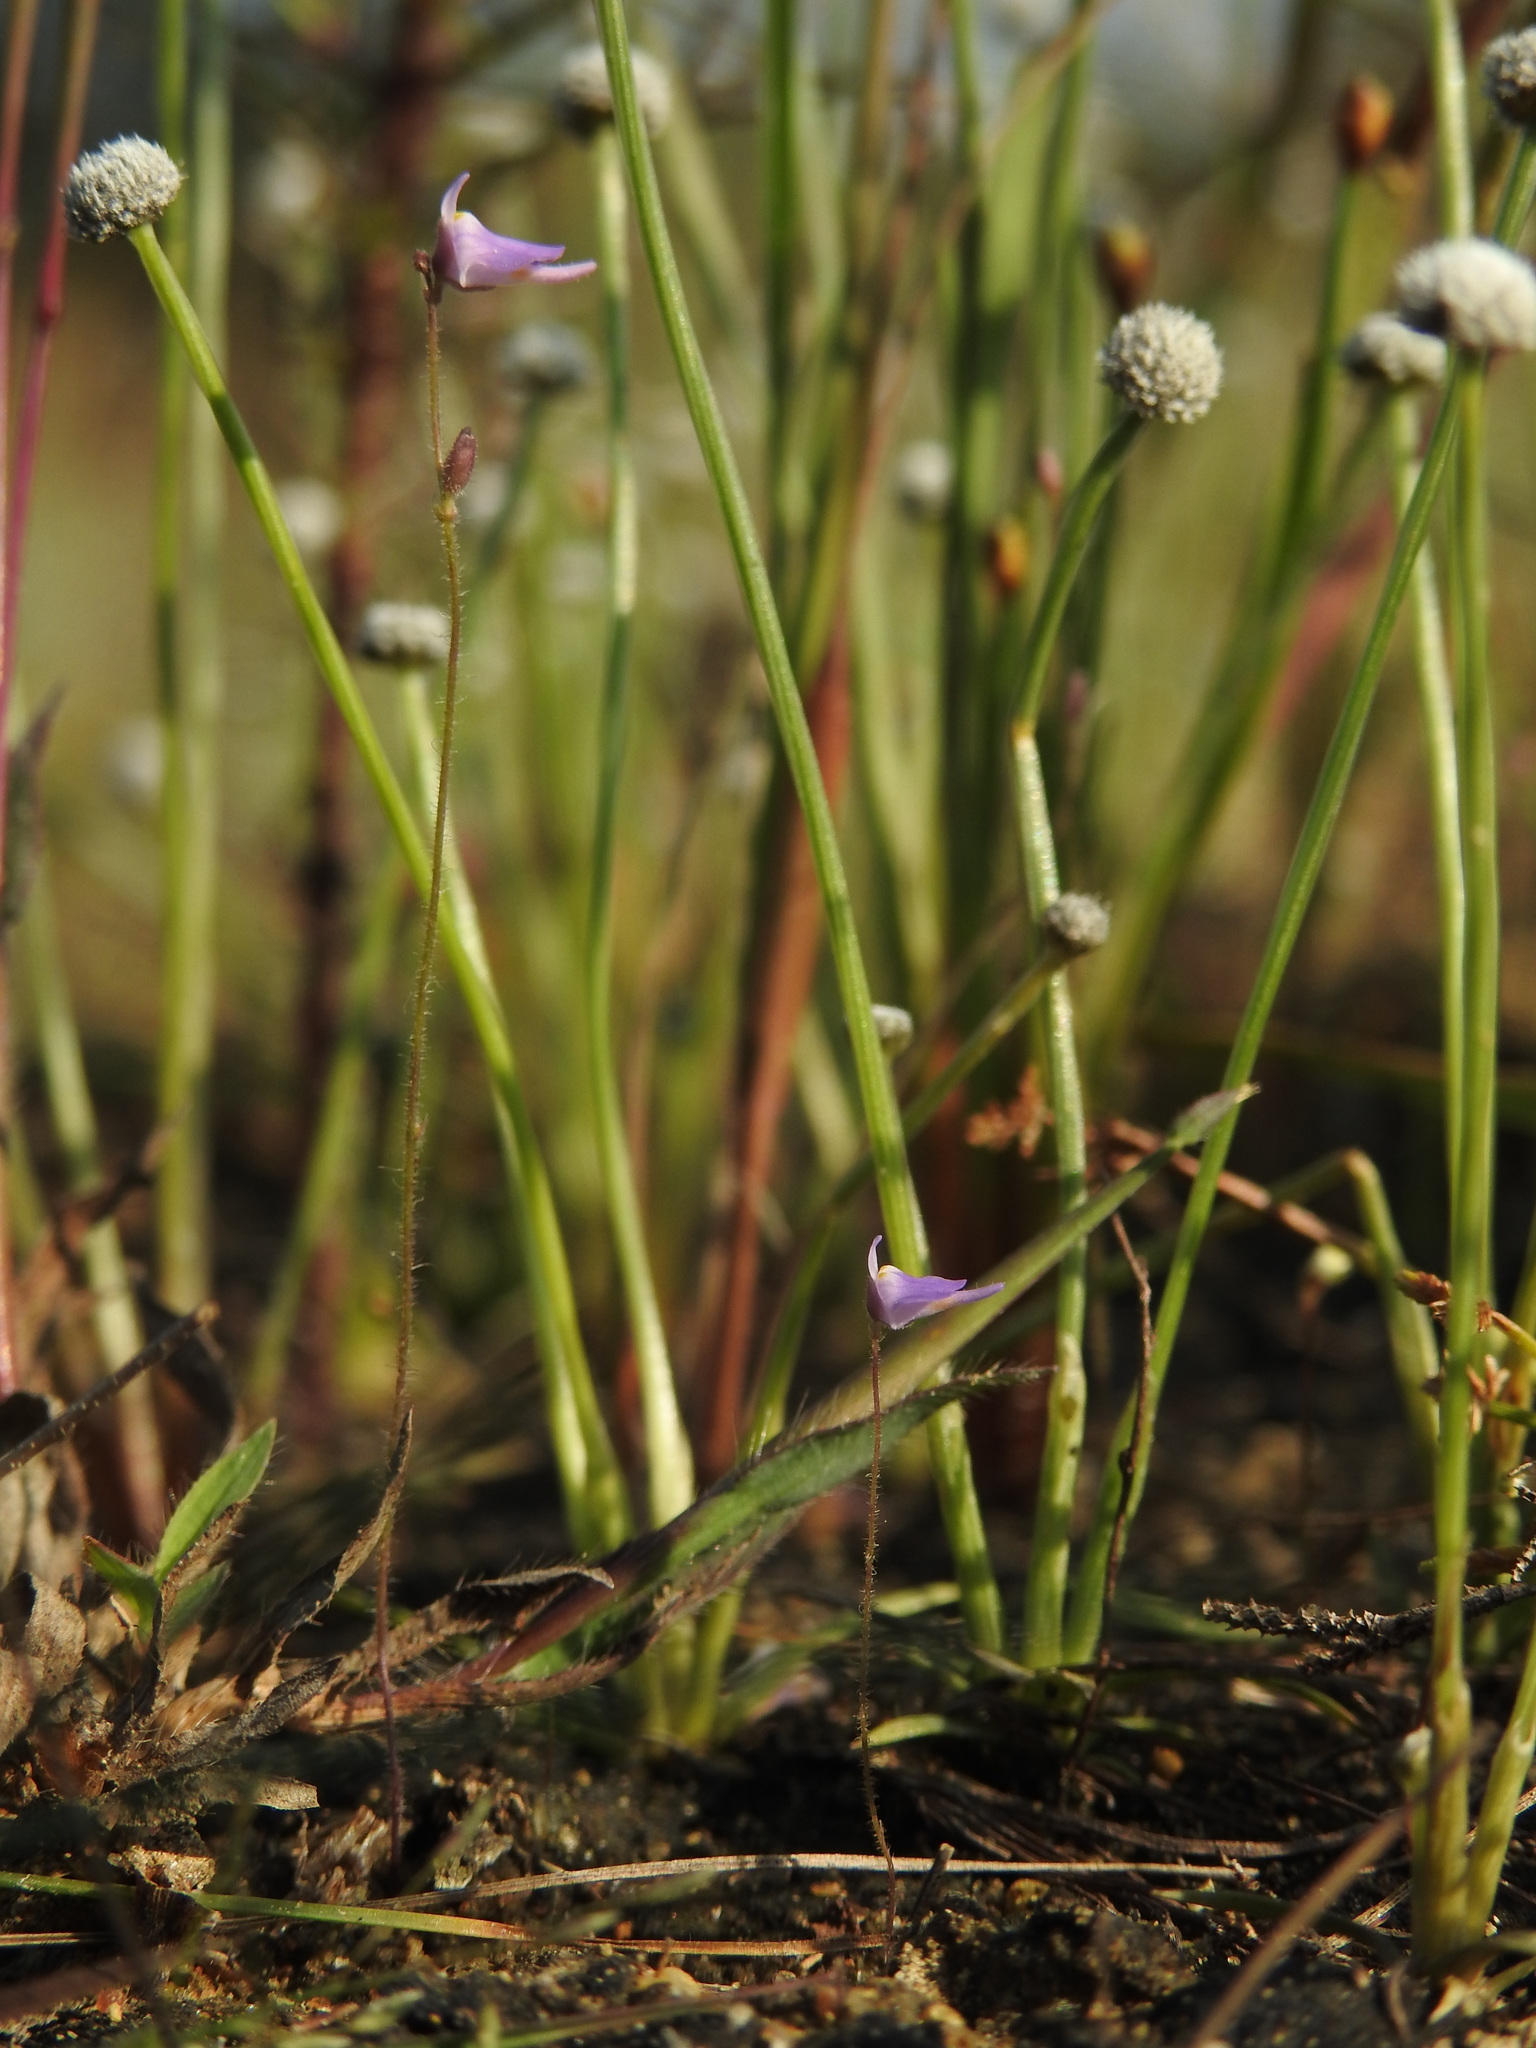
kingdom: Plantae
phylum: Tracheophyta
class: Magnoliopsida
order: Lamiales
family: Lentibulariaceae
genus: Utricularia
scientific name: Utricularia hirta
